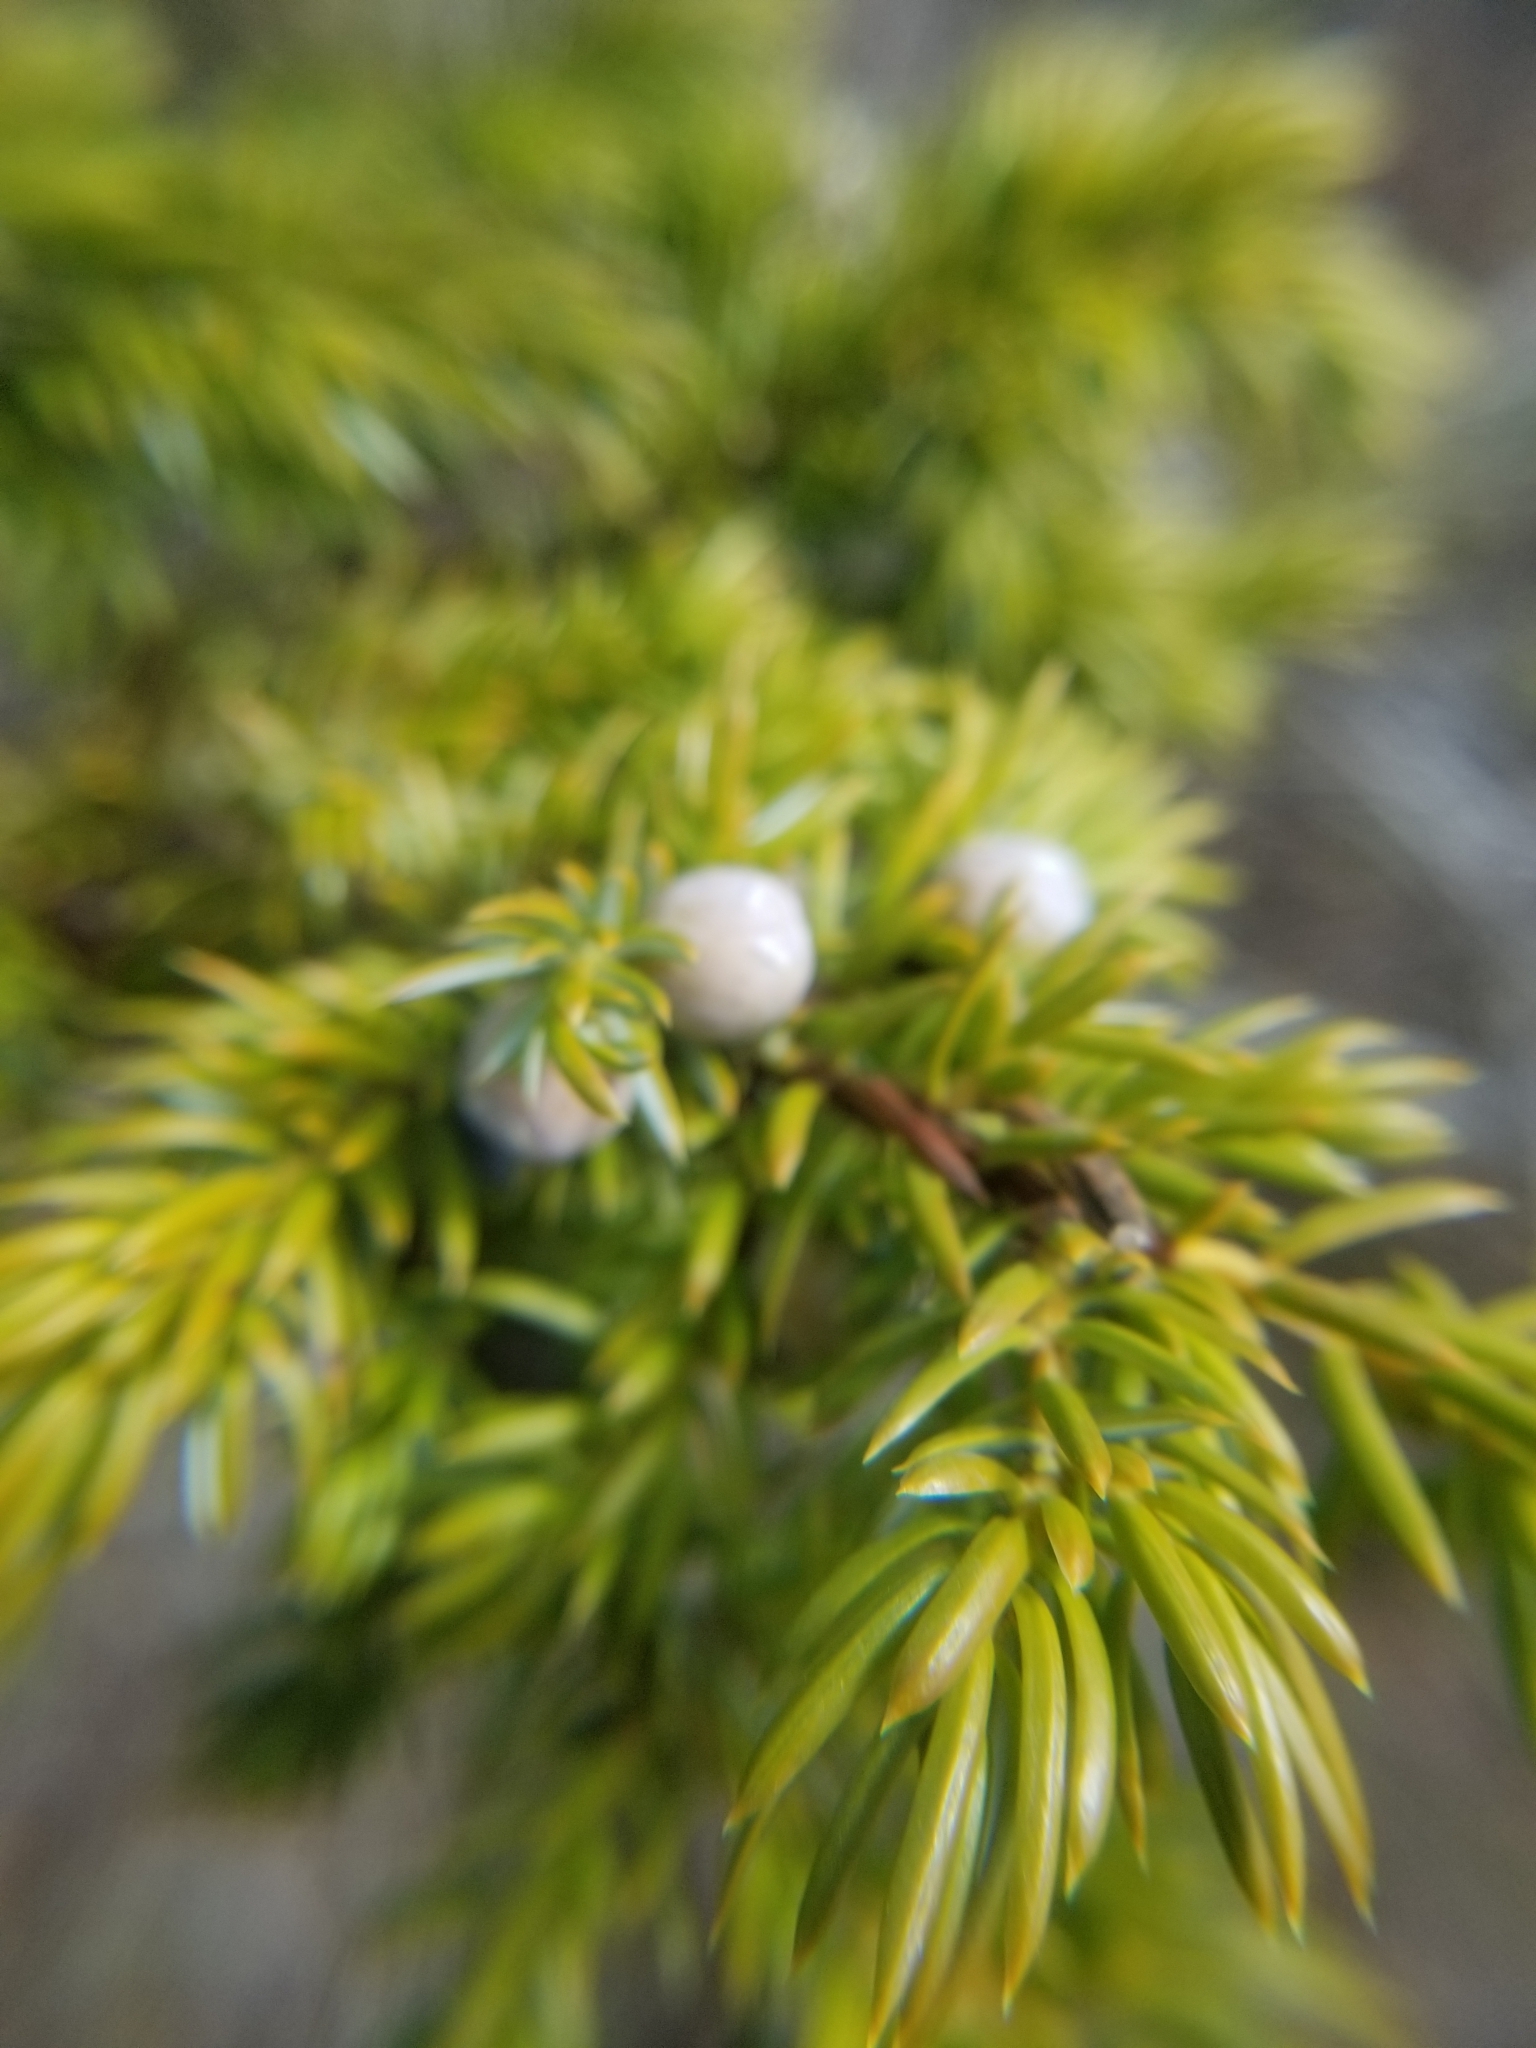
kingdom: Plantae
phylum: Tracheophyta
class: Pinopsida
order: Pinales
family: Cupressaceae
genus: Juniperus
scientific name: Juniperus communis
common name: Common juniper
